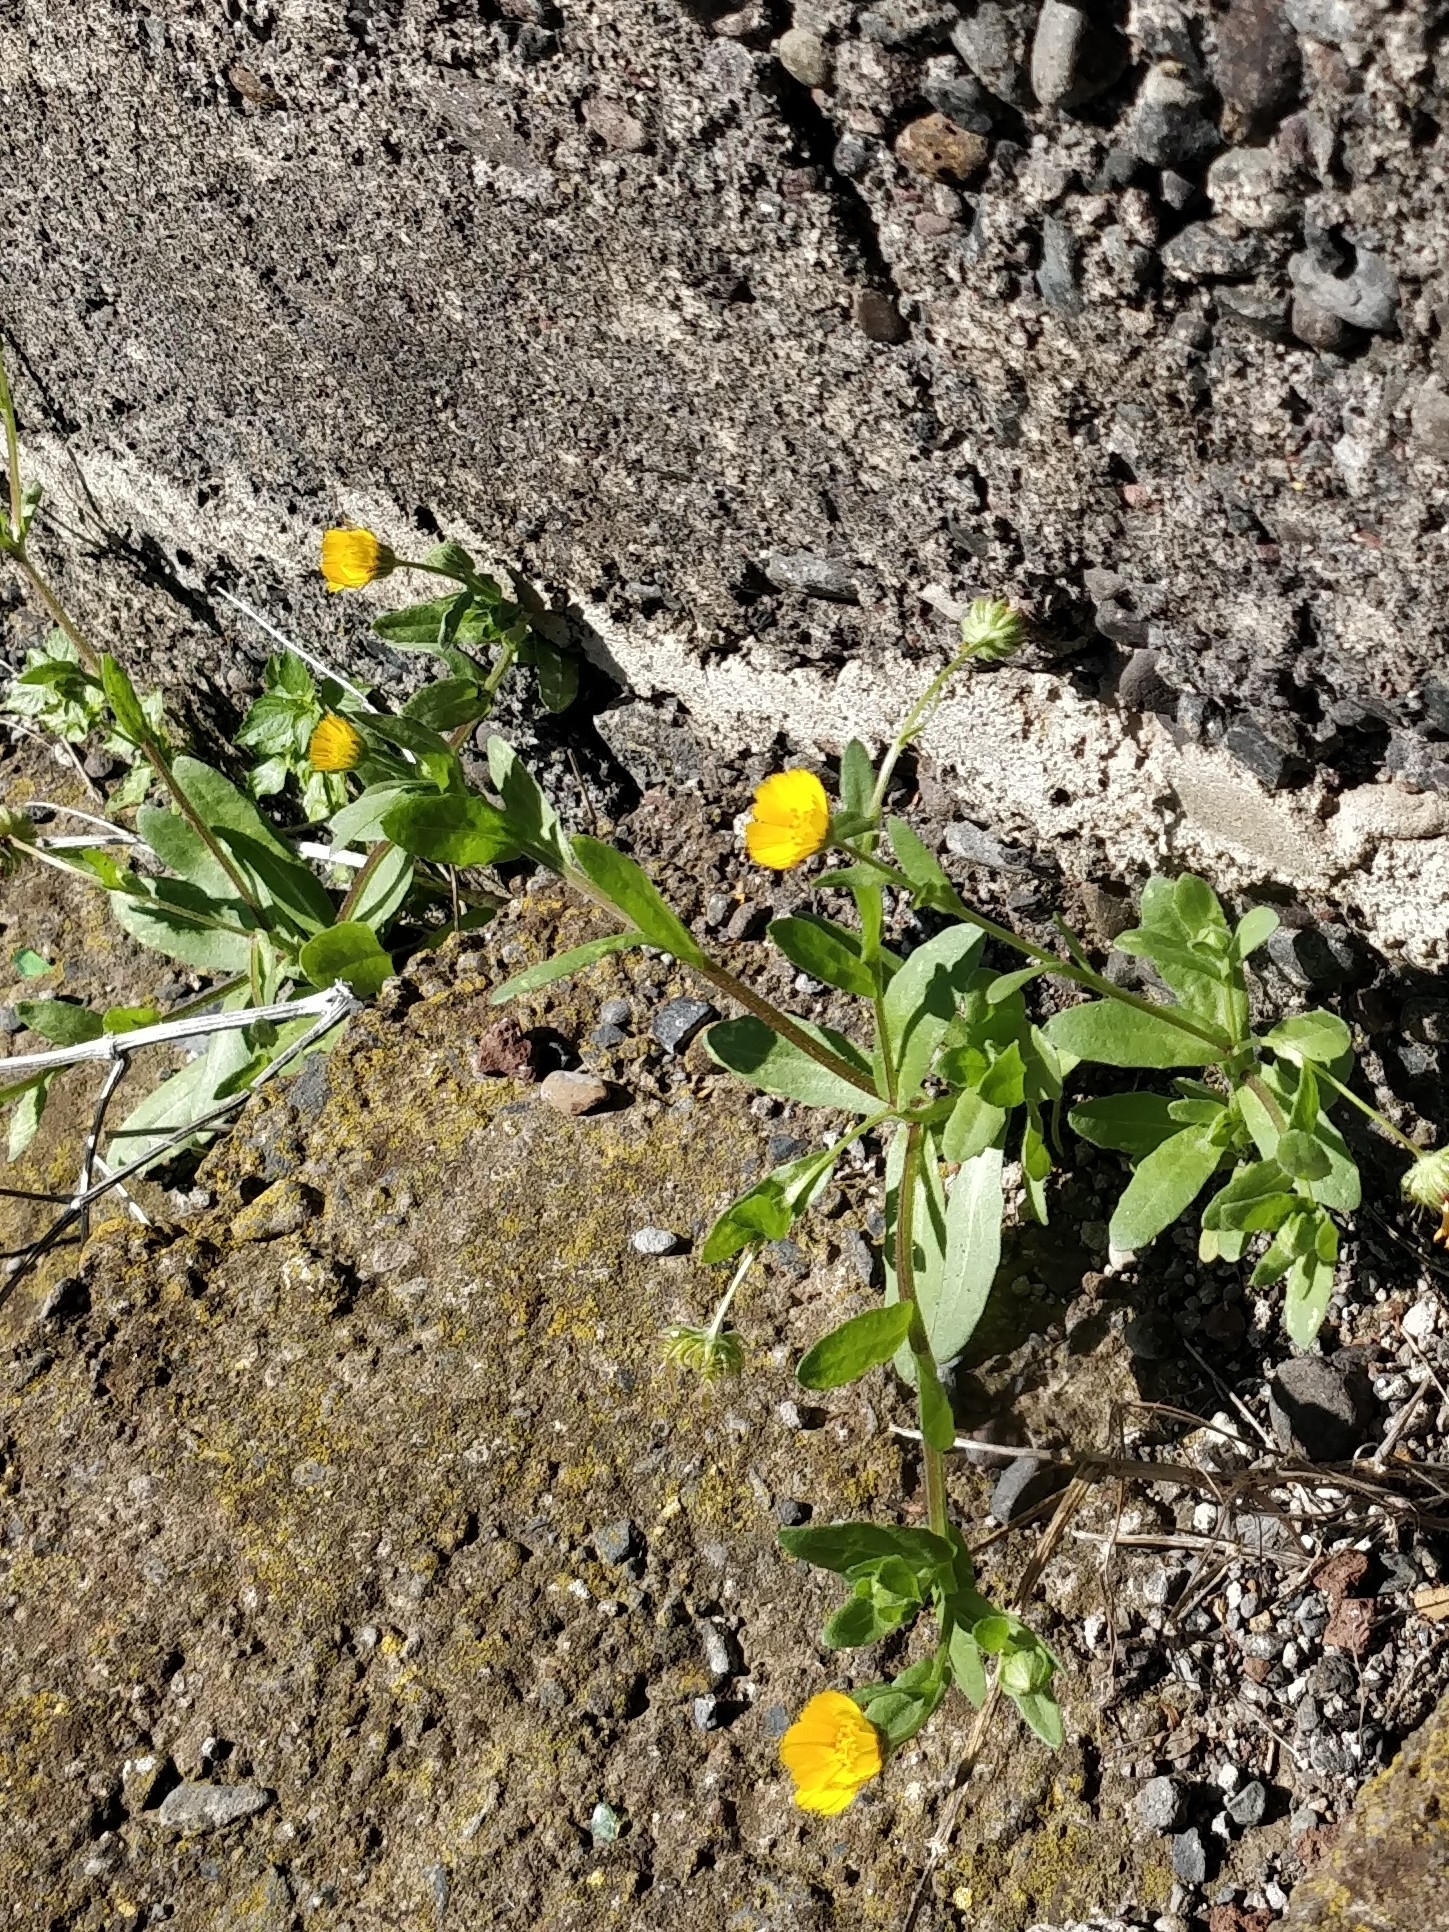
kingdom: Plantae
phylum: Tracheophyta
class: Magnoliopsida
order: Asterales
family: Asteraceae
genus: Calendula
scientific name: Calendula arvensis
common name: Field marigold
